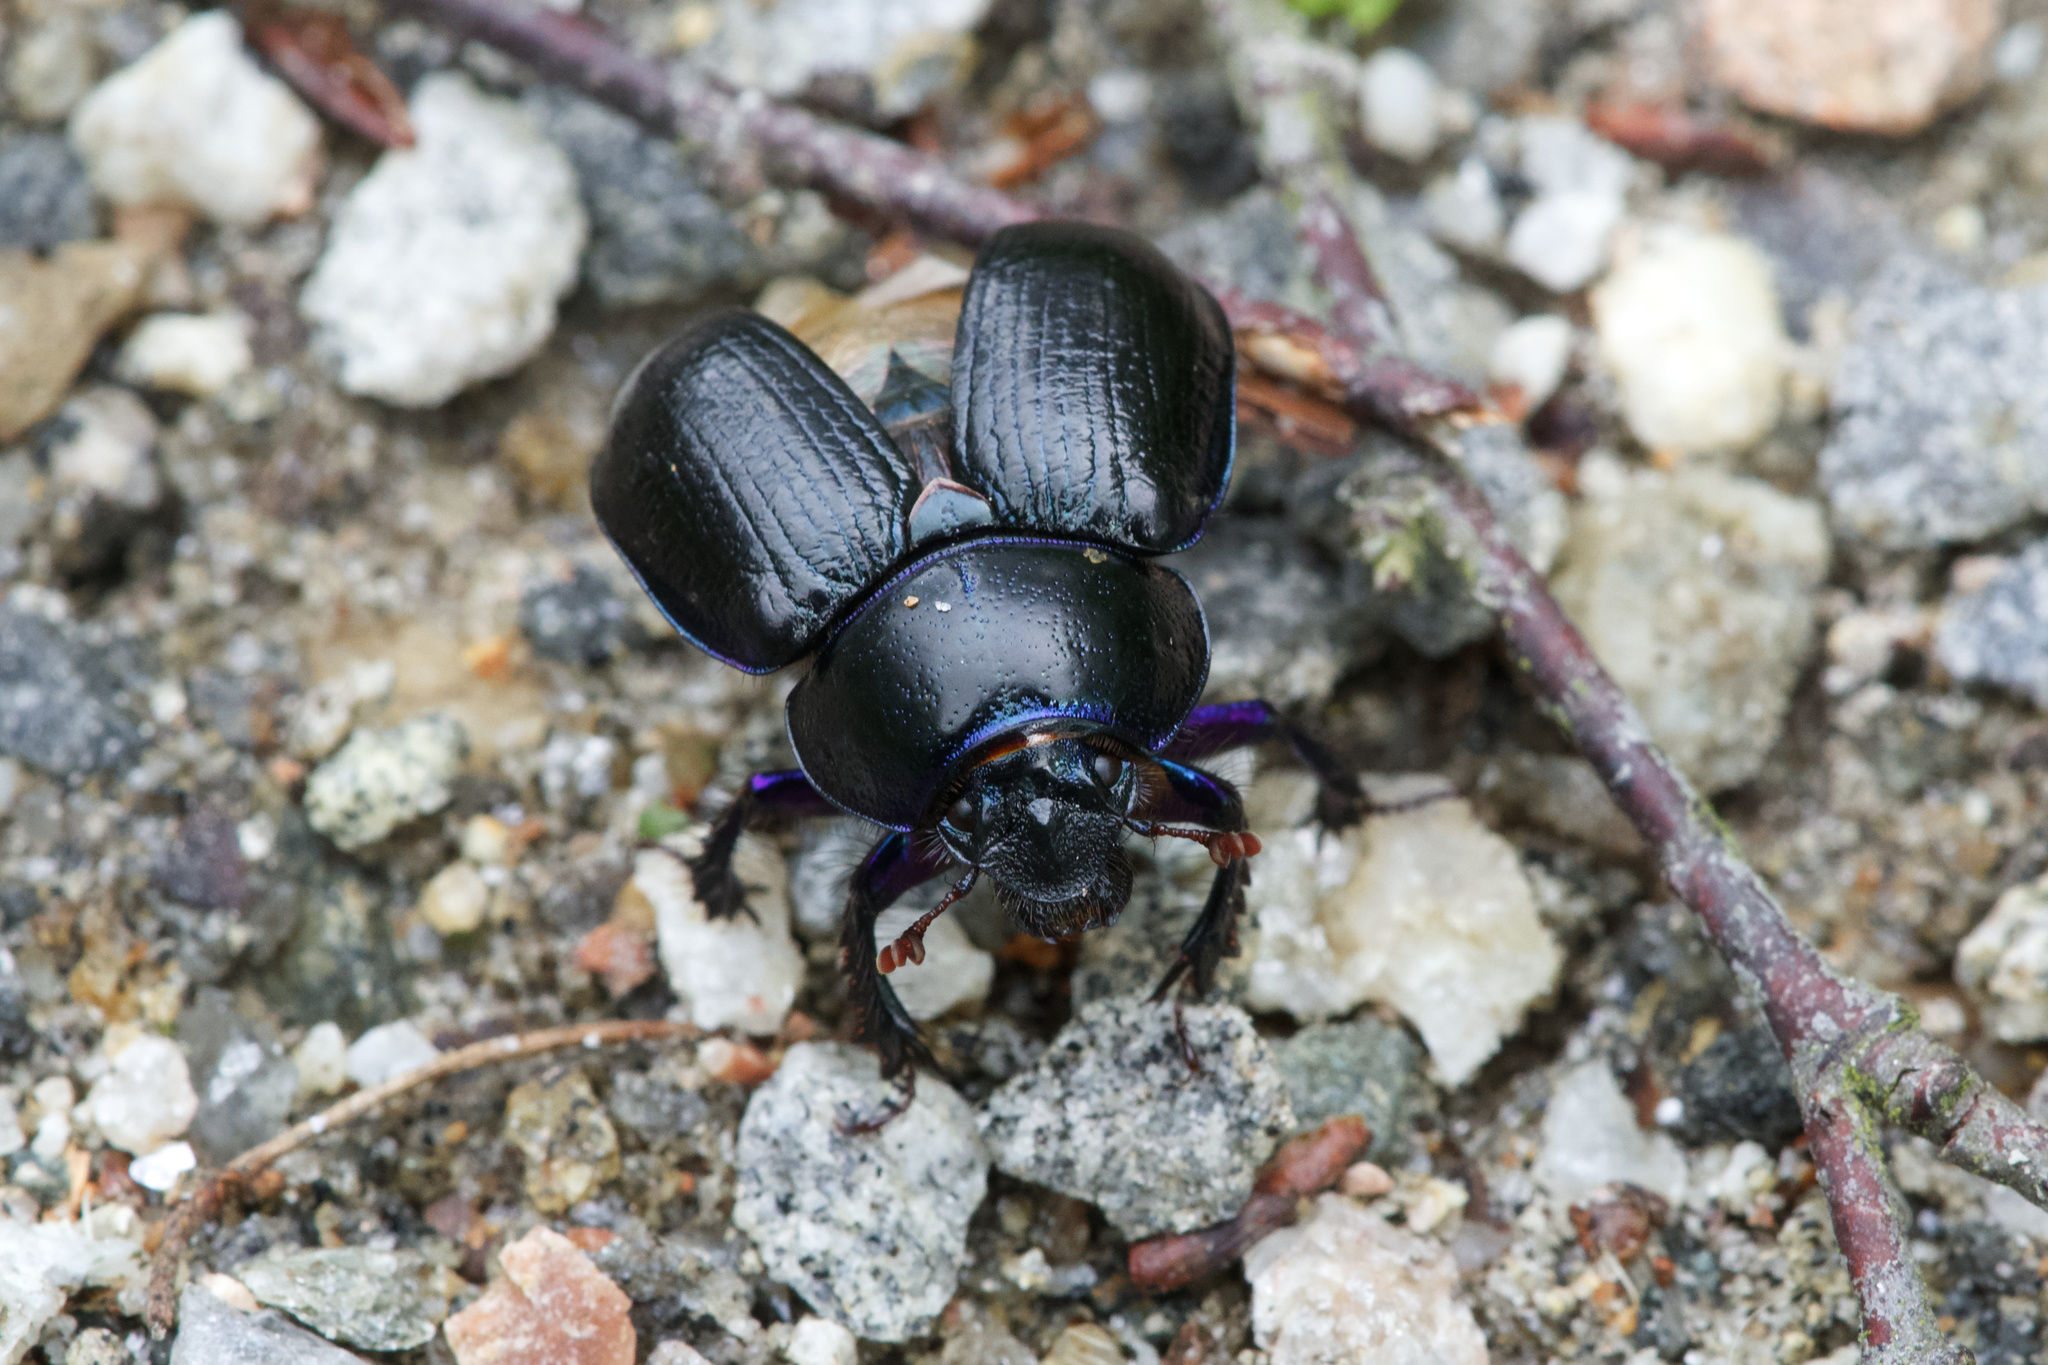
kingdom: Animalia
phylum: Arthropoda
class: Insecta
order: Coleoptera
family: Geotrupidae
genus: Anoplotrupes
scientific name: Anoplotrupes stercorosus
